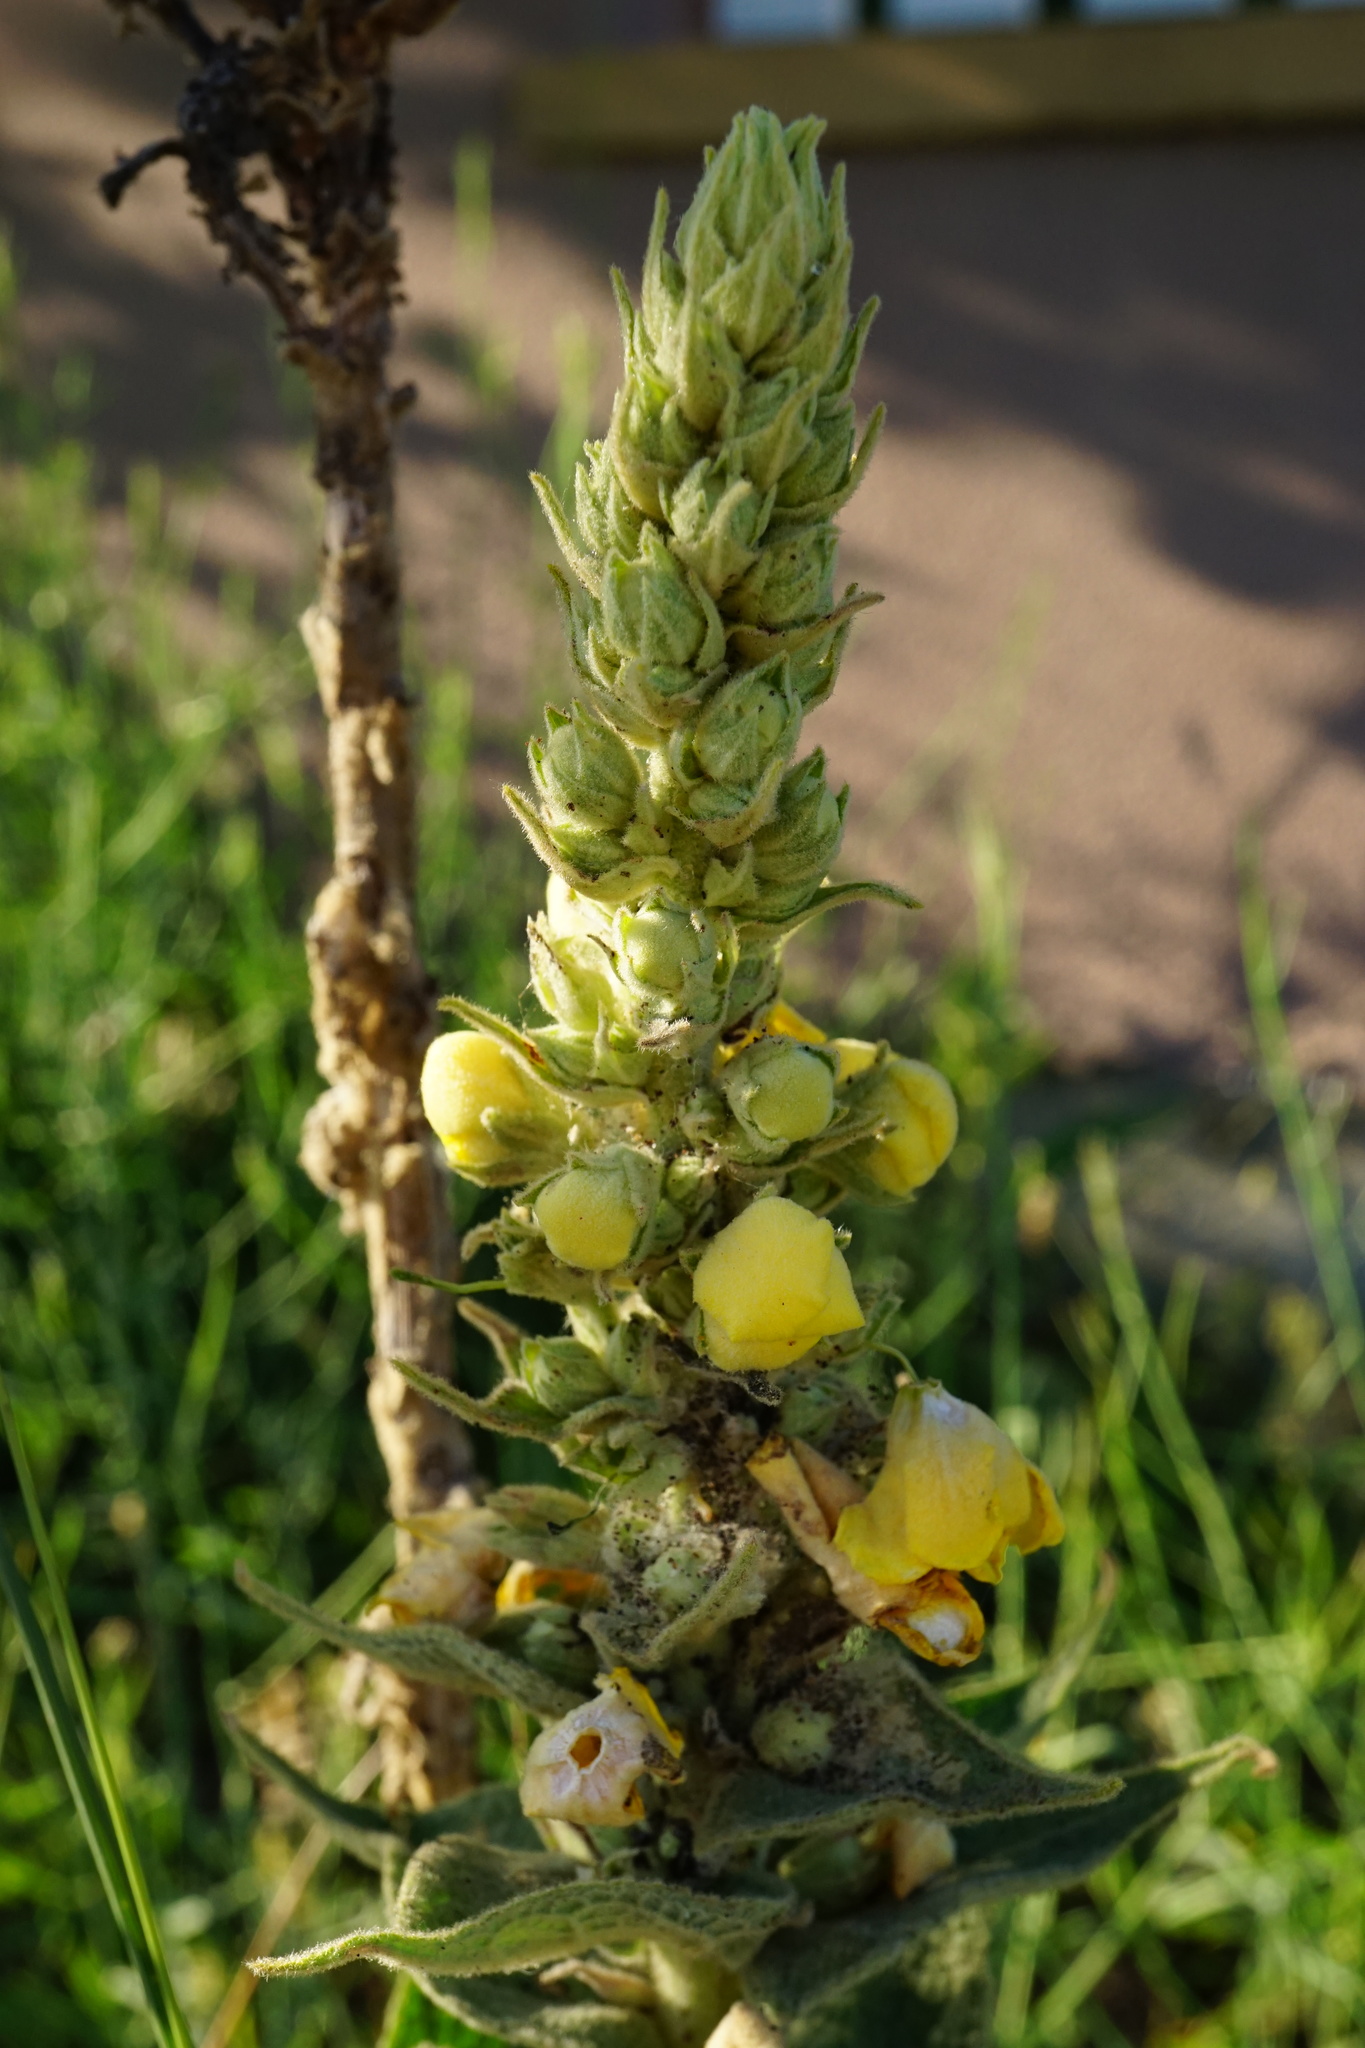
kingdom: Plantae
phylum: Tracheophyta
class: Magnoliopsida
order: Lamiales
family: Scrophulariaceae
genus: Verbascum
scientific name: Verbascum phlomoides
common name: Orange mullein
